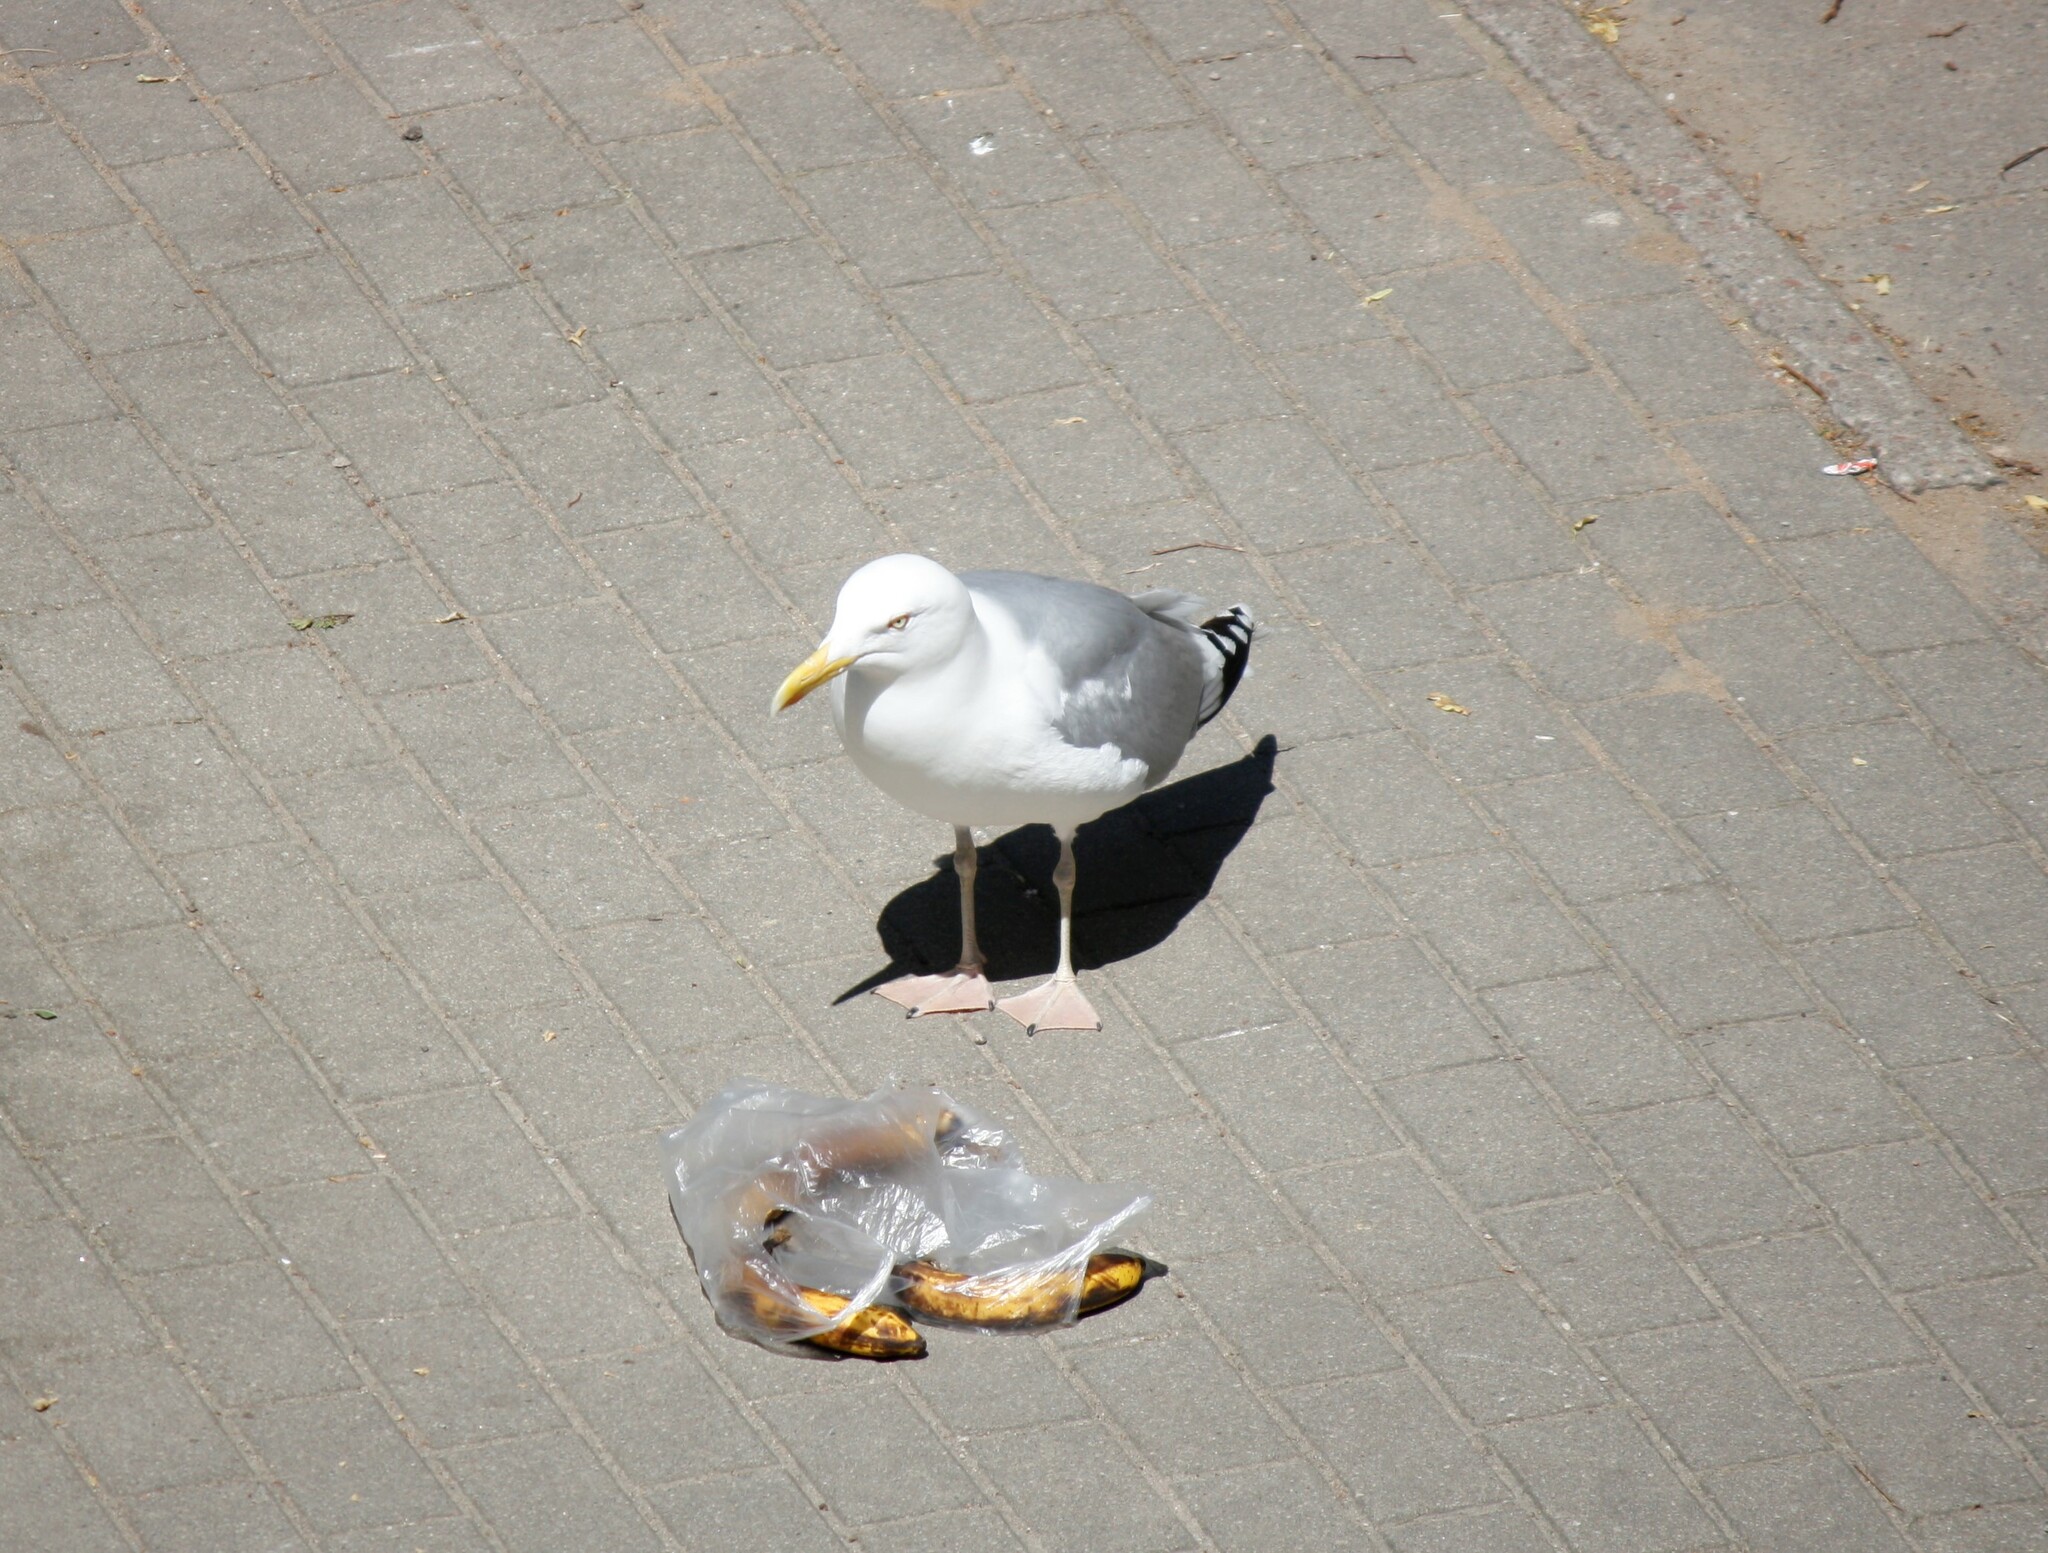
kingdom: Animalia
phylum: Chordata
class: Aves
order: Charadriiformes
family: Laridae
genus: Larus
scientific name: Larus argentatus
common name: Herring gull
